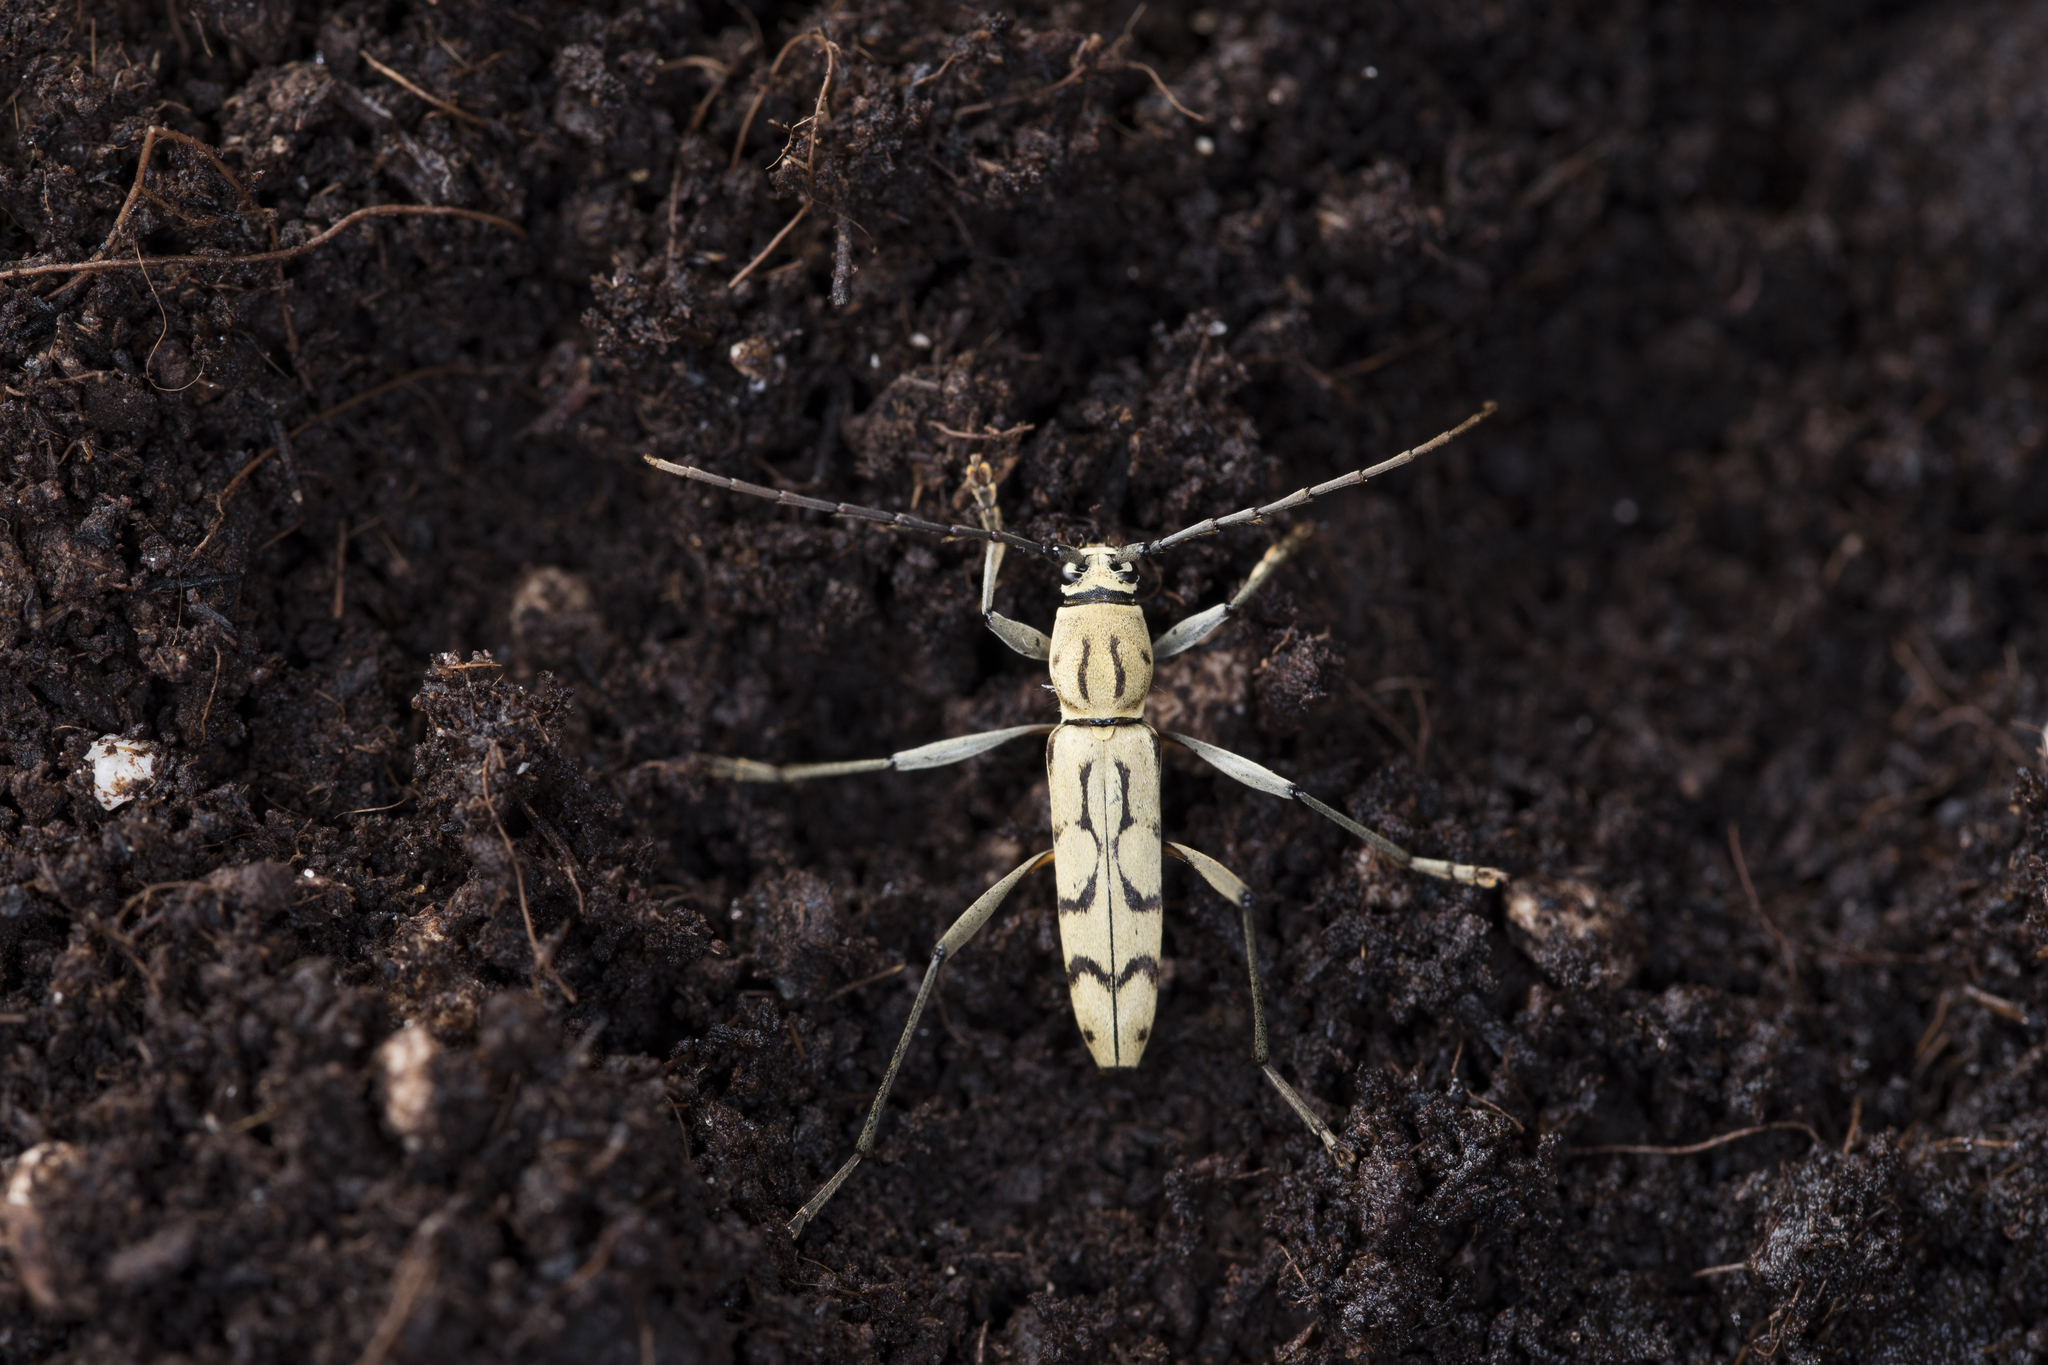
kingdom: Animalia
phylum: Arthropoda
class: Insecta
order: Coleoptera
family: Cerambycidae
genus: Rhaphuma
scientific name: Rhaphuma circumscripta
